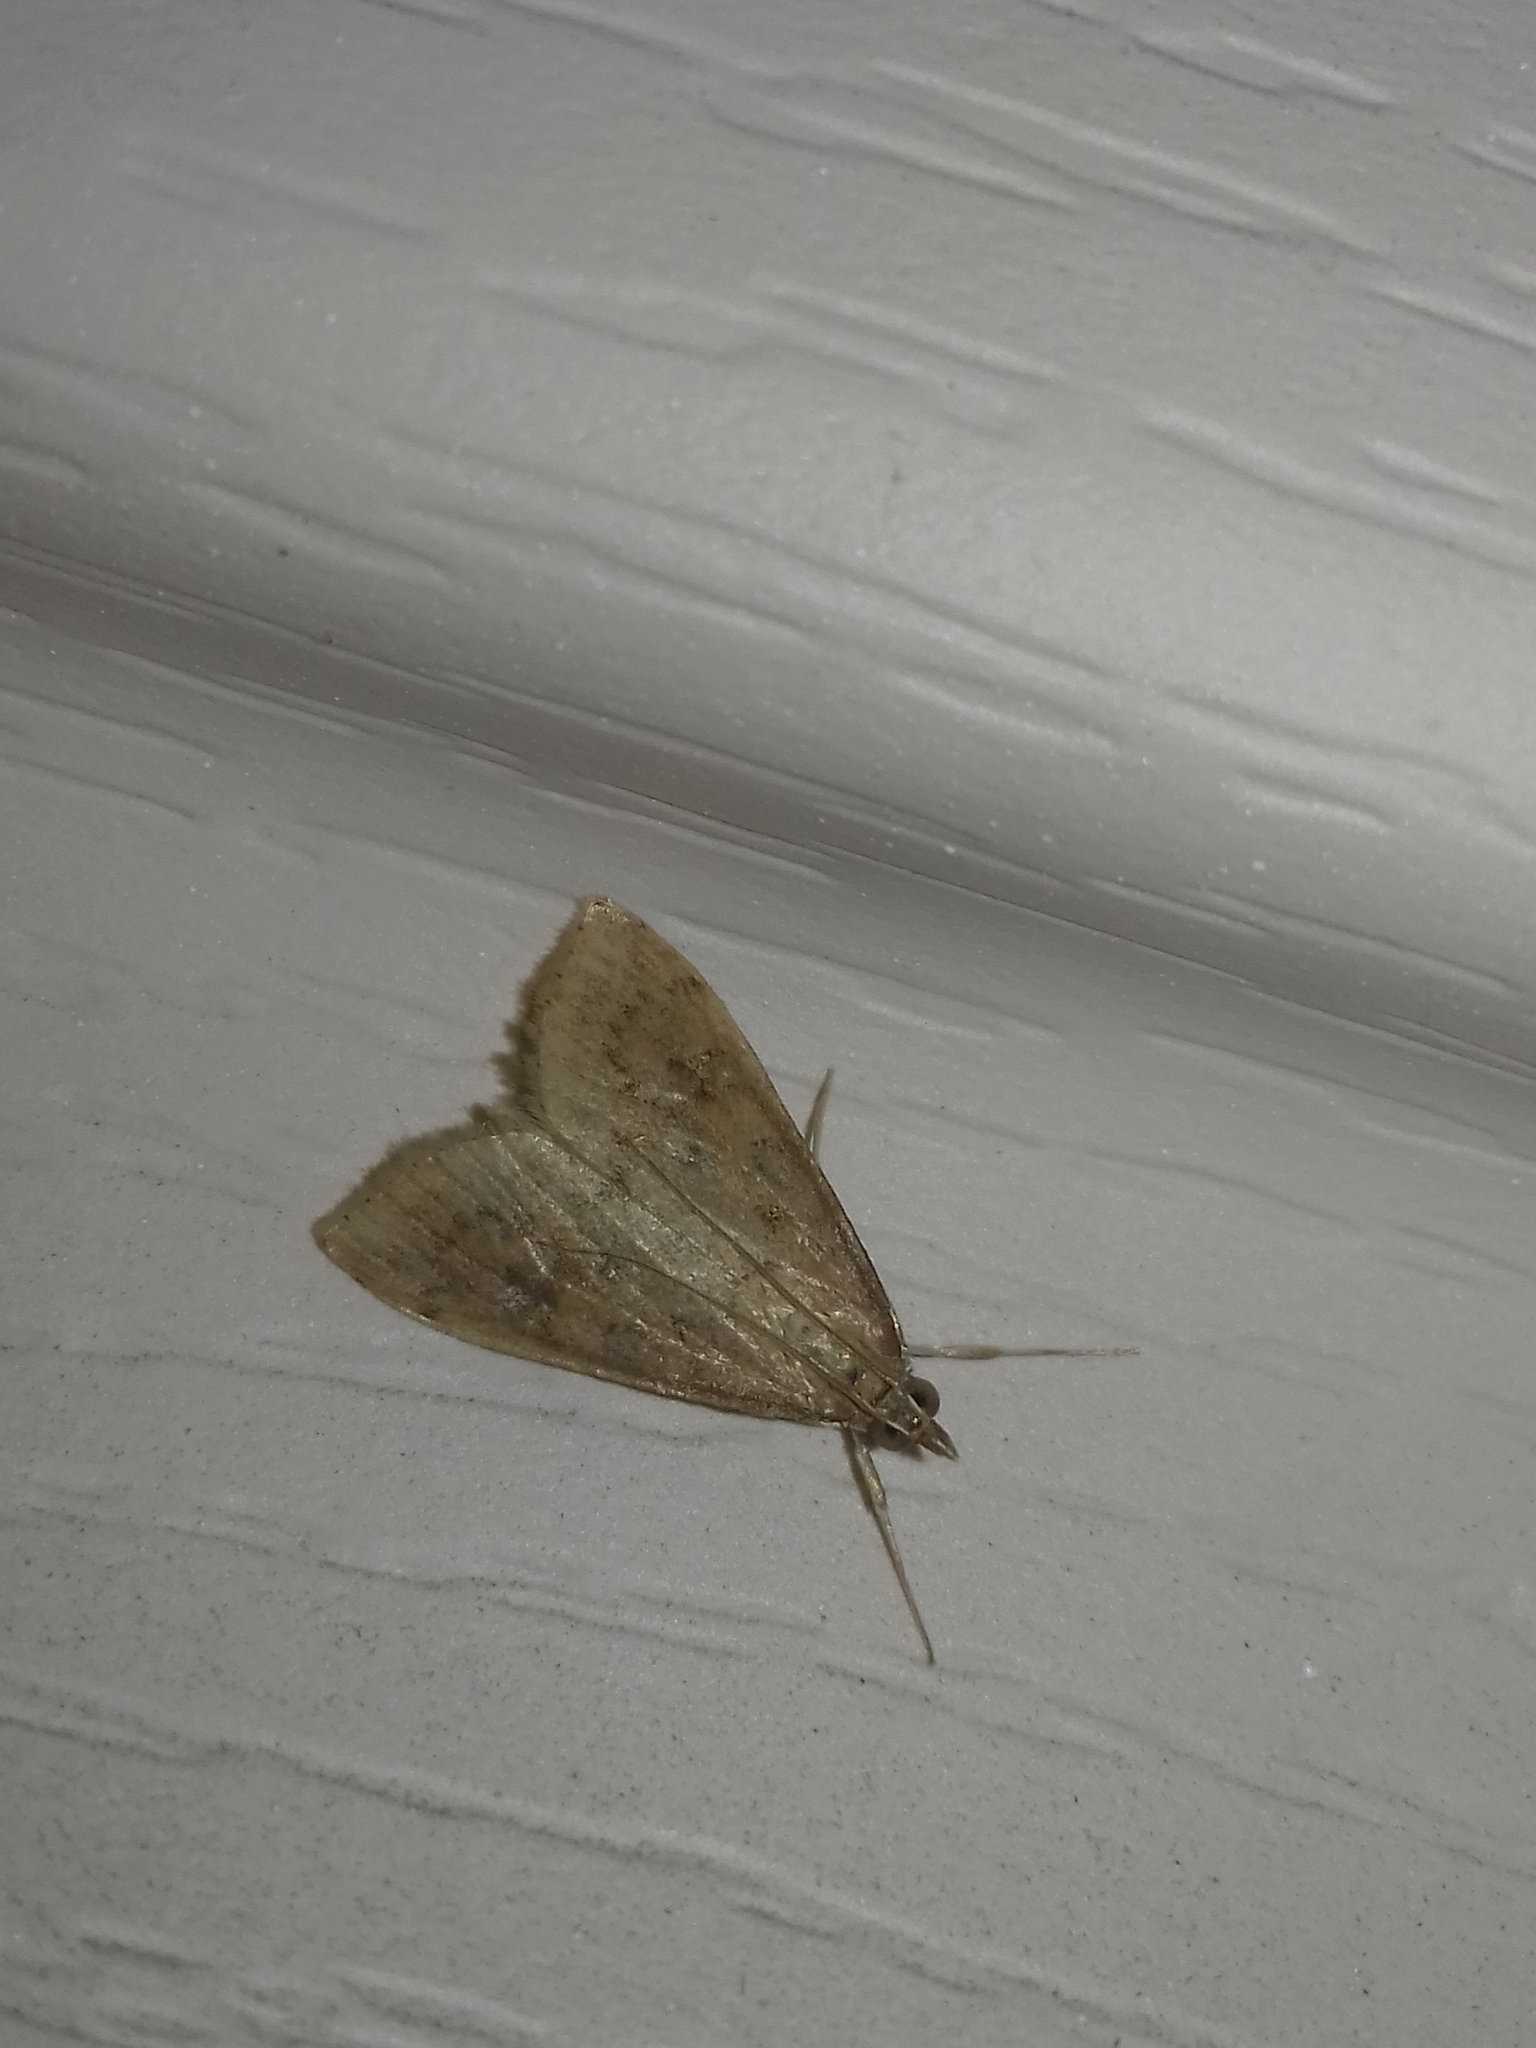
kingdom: Animalia
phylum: Arthropoda
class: Insecta
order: Lepidoptera
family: Crambidae
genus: Udea
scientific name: Udea ferrugalis
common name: Rusty dot
